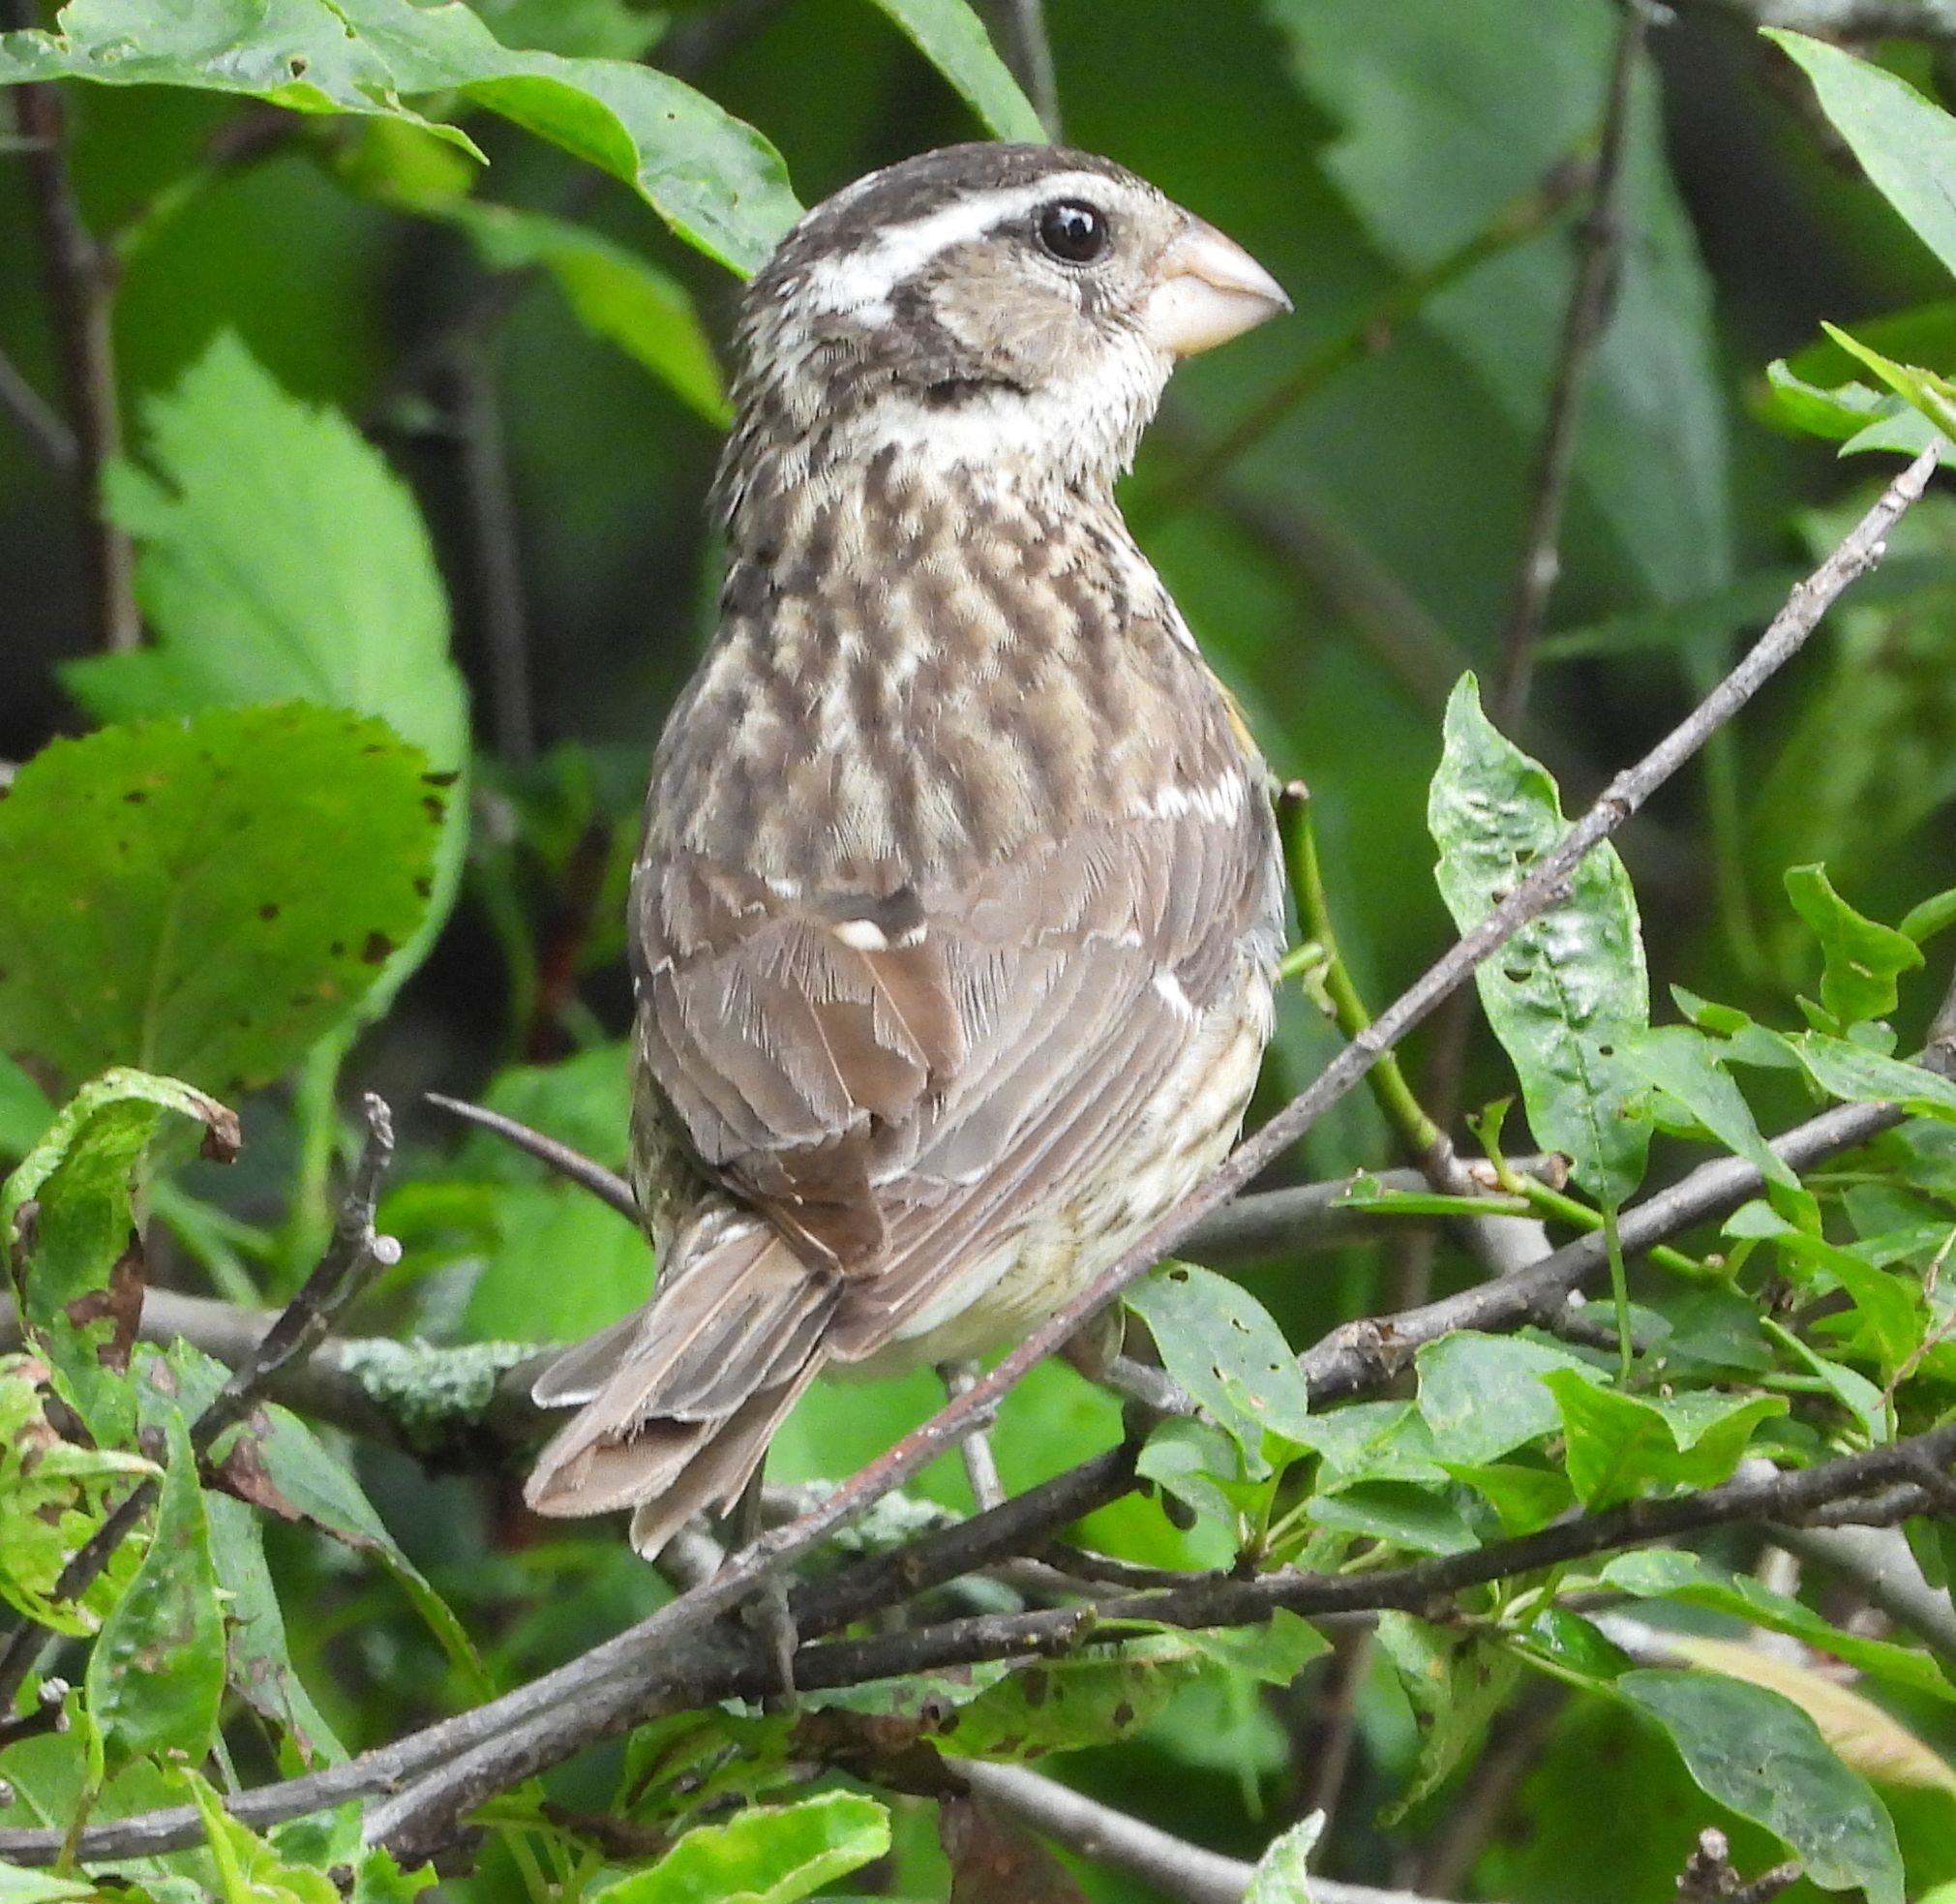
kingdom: Animalia
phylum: Chordata
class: Aves
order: Passeriformes
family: Cardinalidae
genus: Pheucticus
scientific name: Pheucticus ludovicianus
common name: Rose-breasted grosbeak
